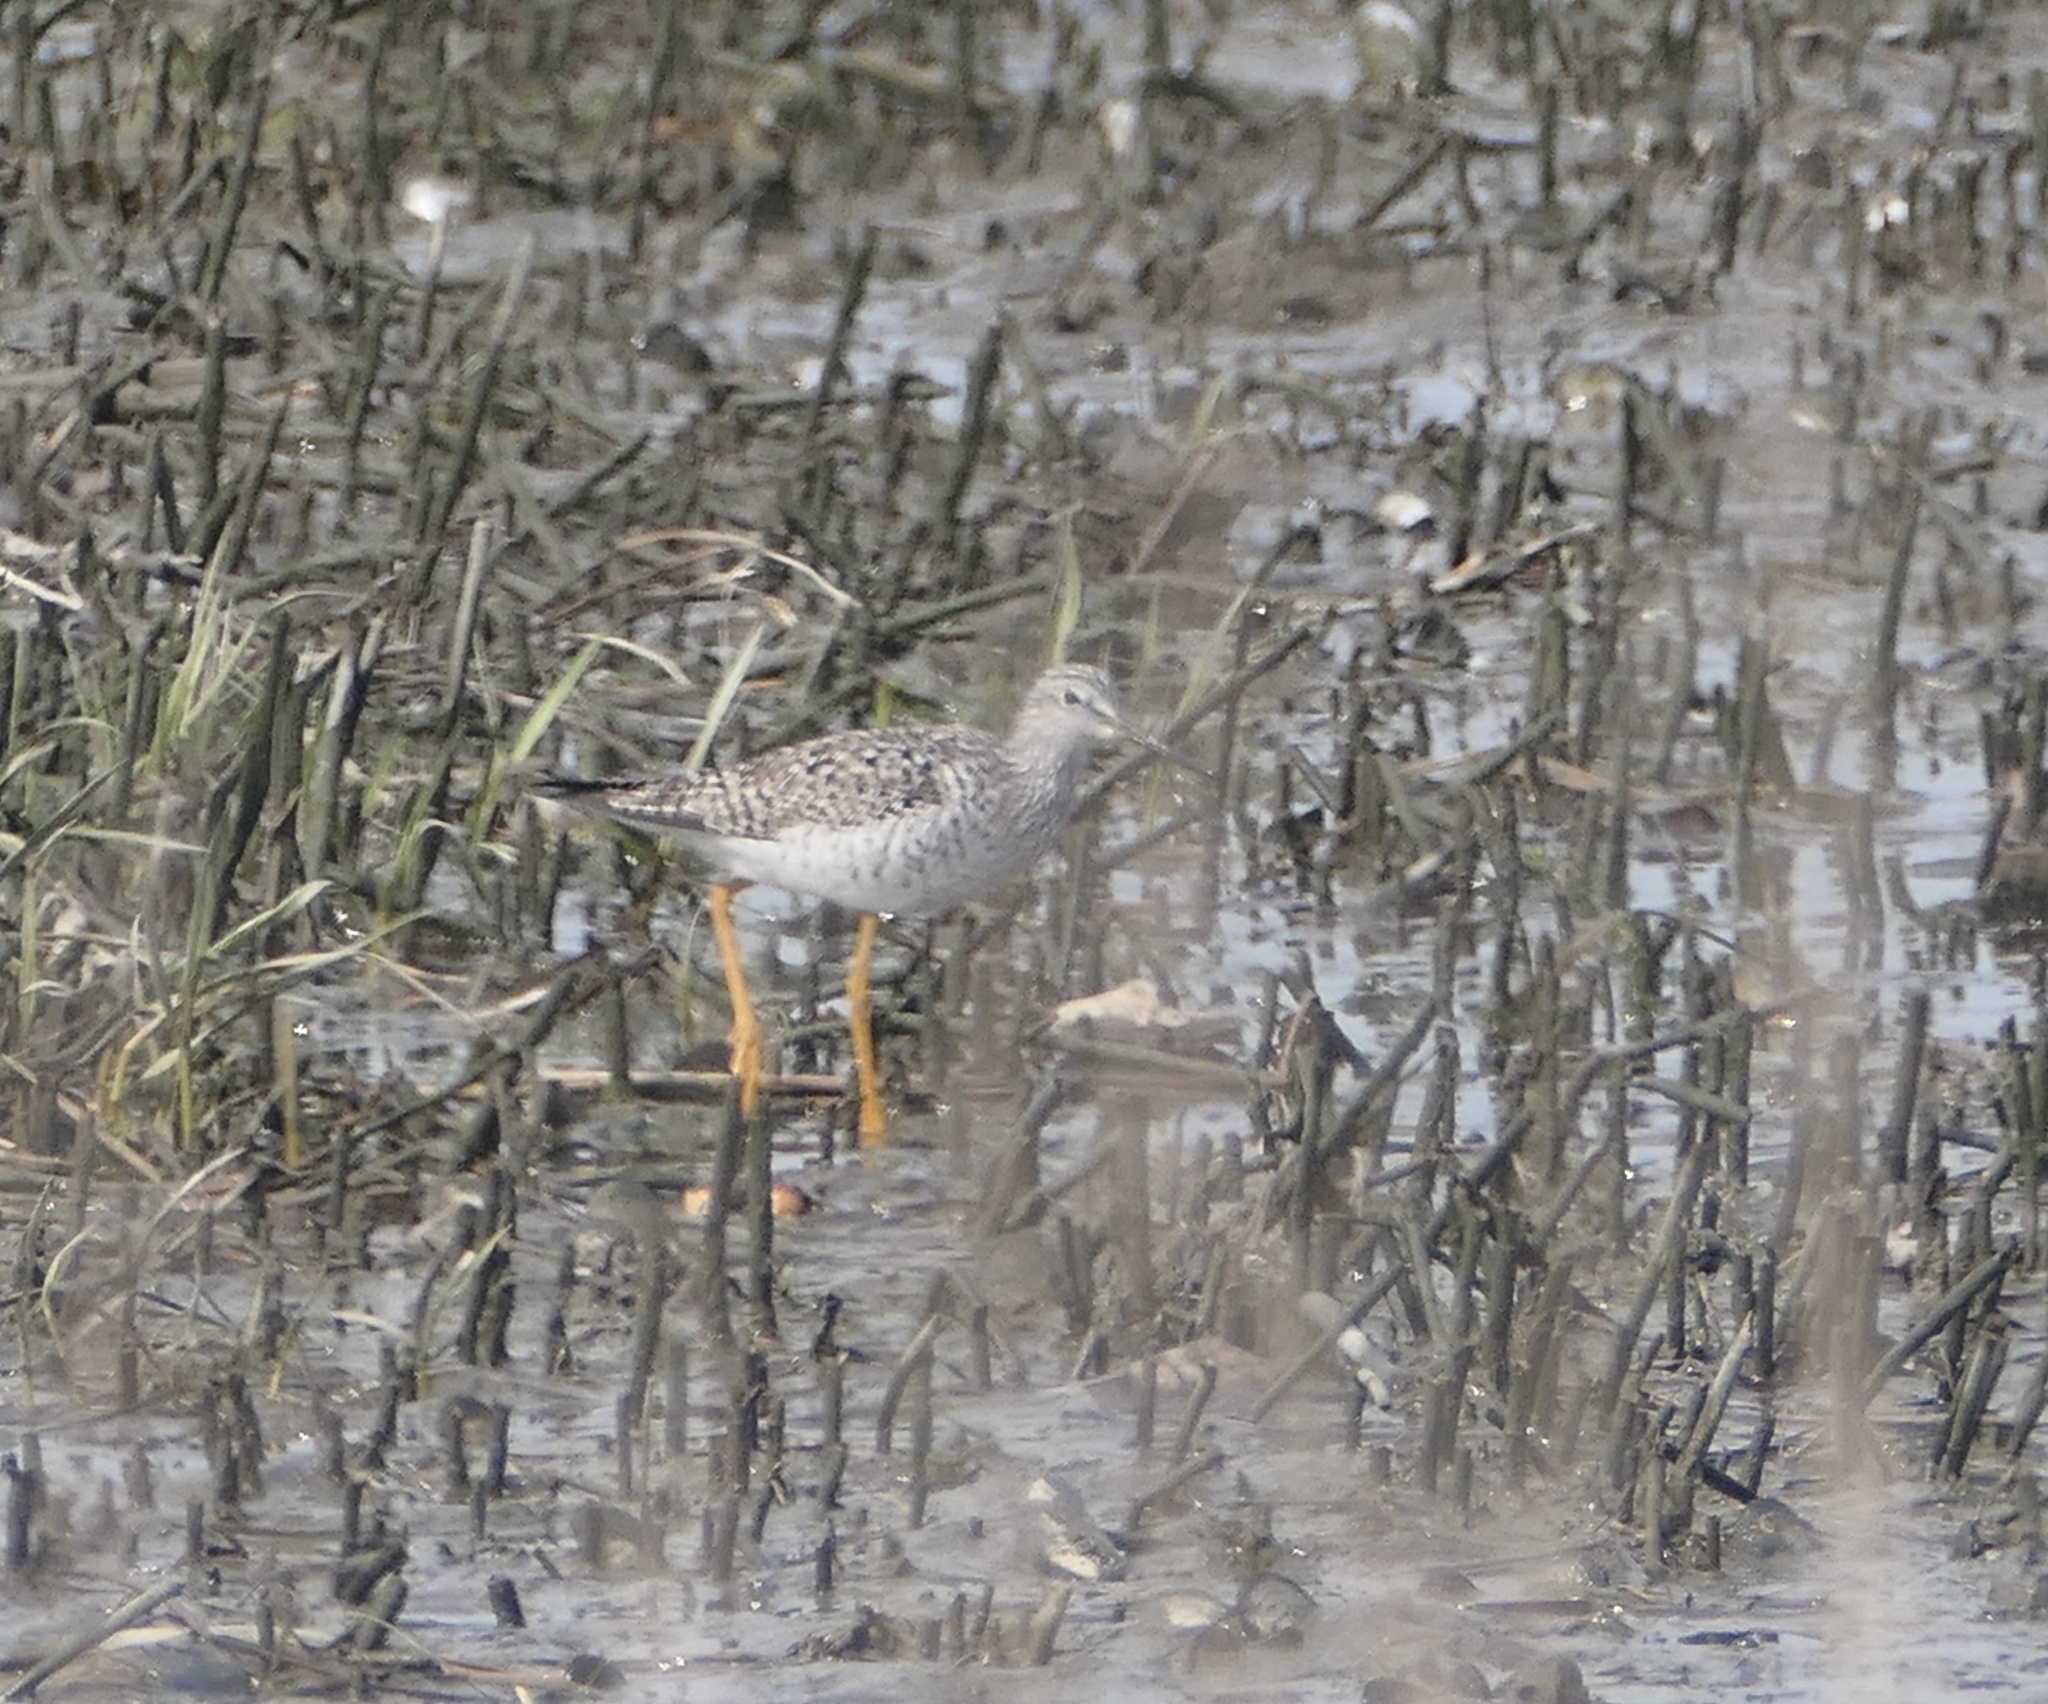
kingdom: Animalia
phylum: Chordata
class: Aves
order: Charadriiformes
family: Scolopacidae
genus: Tringa
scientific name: Tringa melanoleuca
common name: Greater yellowlegs
